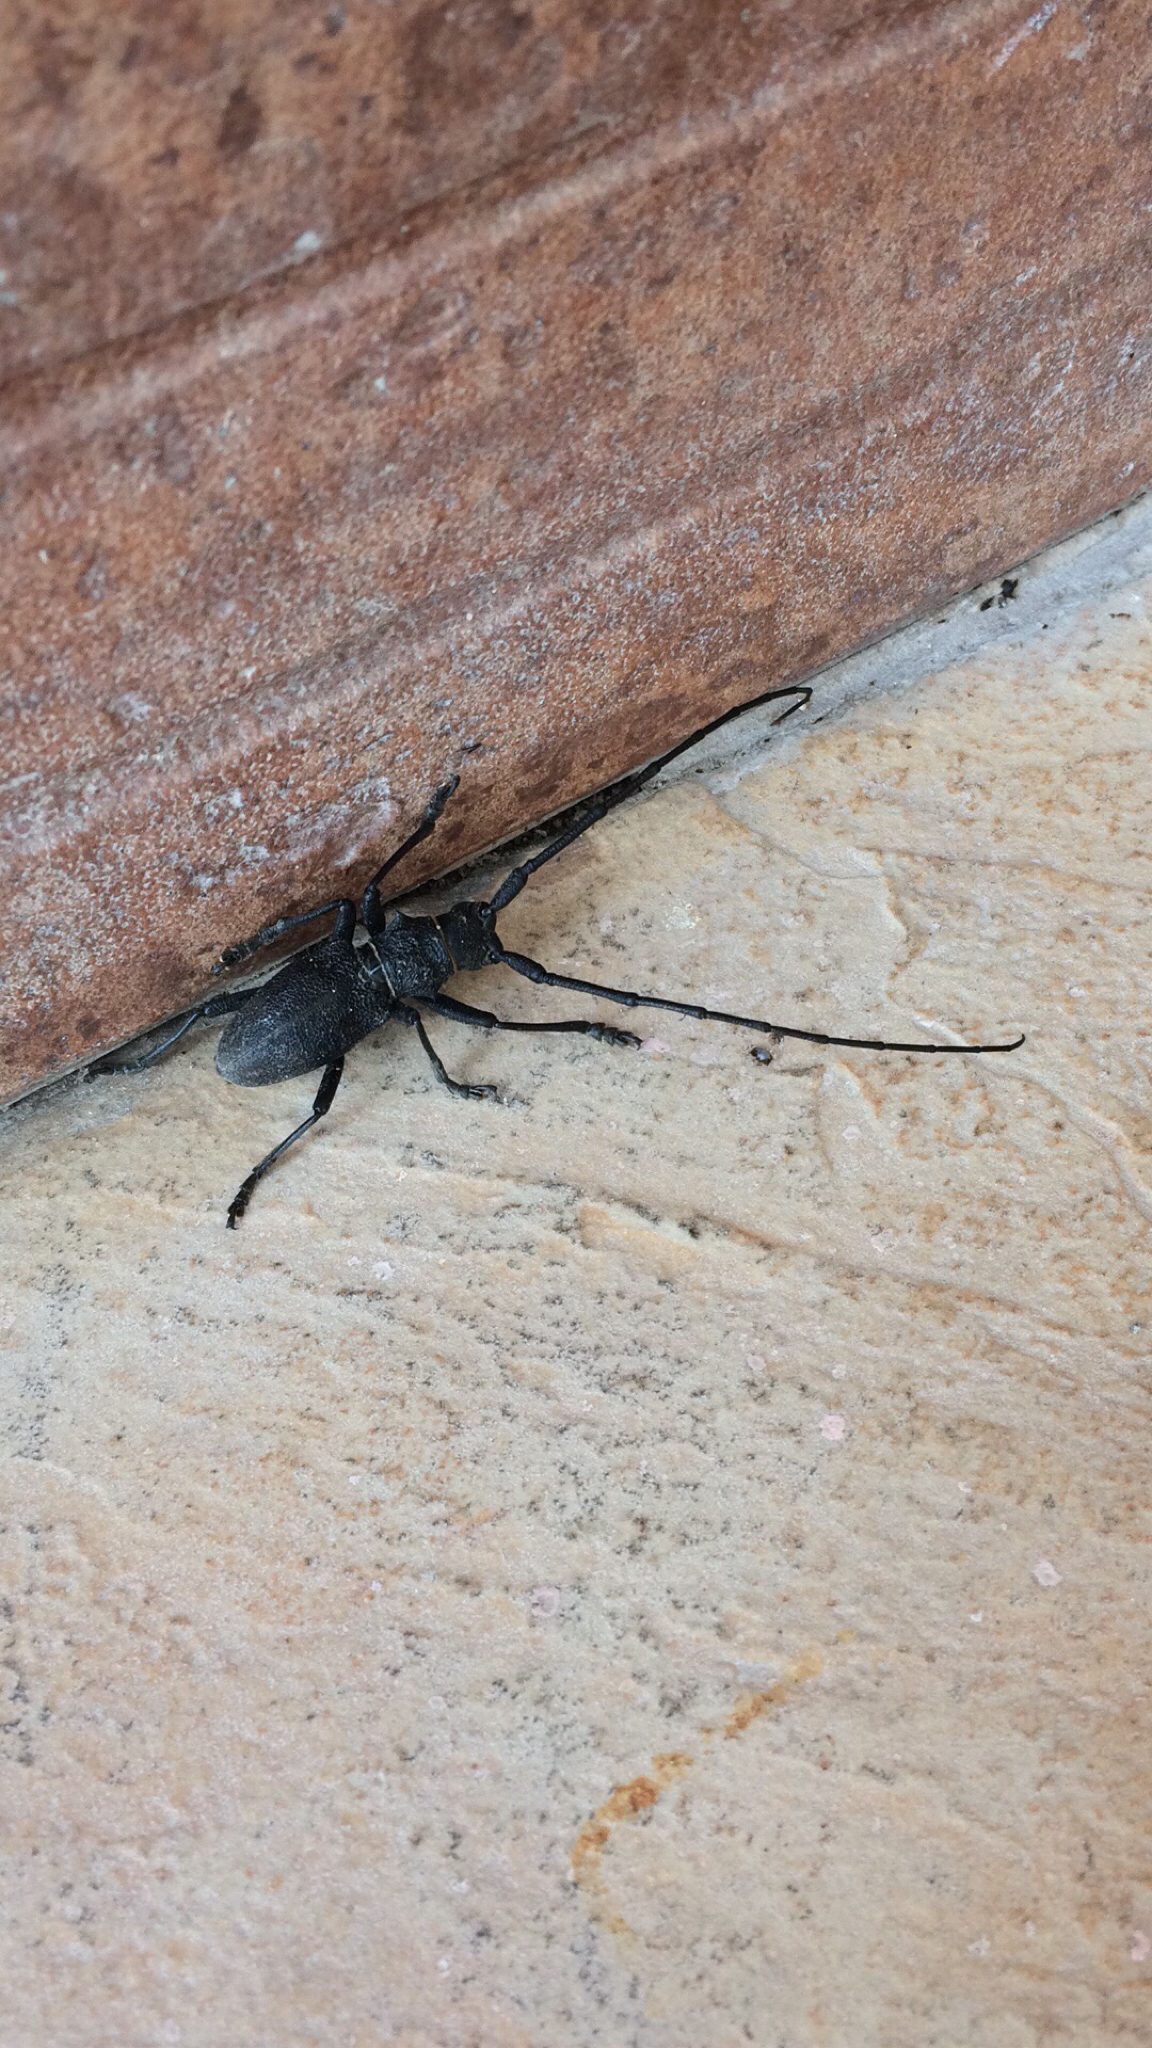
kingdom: Animalia
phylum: Arthropoda
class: Insecta
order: Coleoptera
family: Cerambycidae
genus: Morimus
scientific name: Morimus asper
